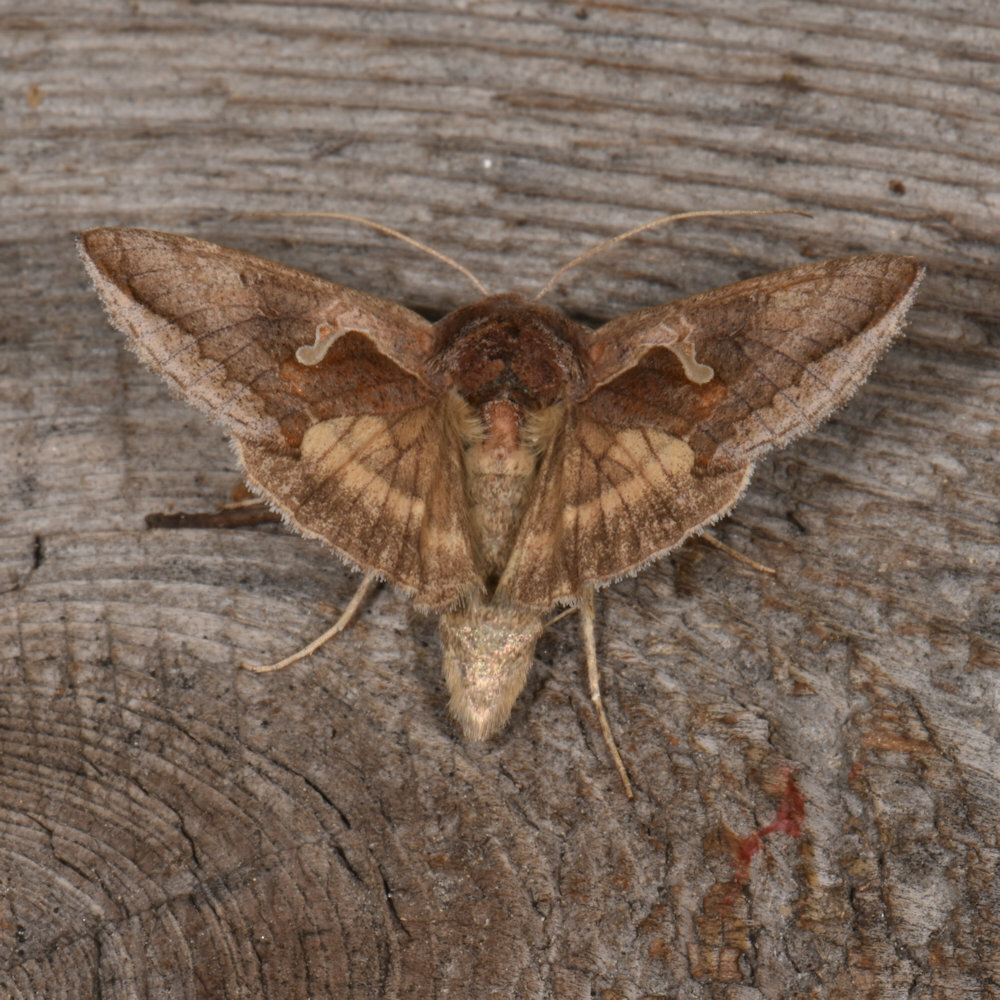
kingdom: Animalia
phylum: Arthropoda
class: Insecta
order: Lepidoptera
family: Noctuidae
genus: Anagrapha
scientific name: Anagrapha falcifera
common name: Celery looper
